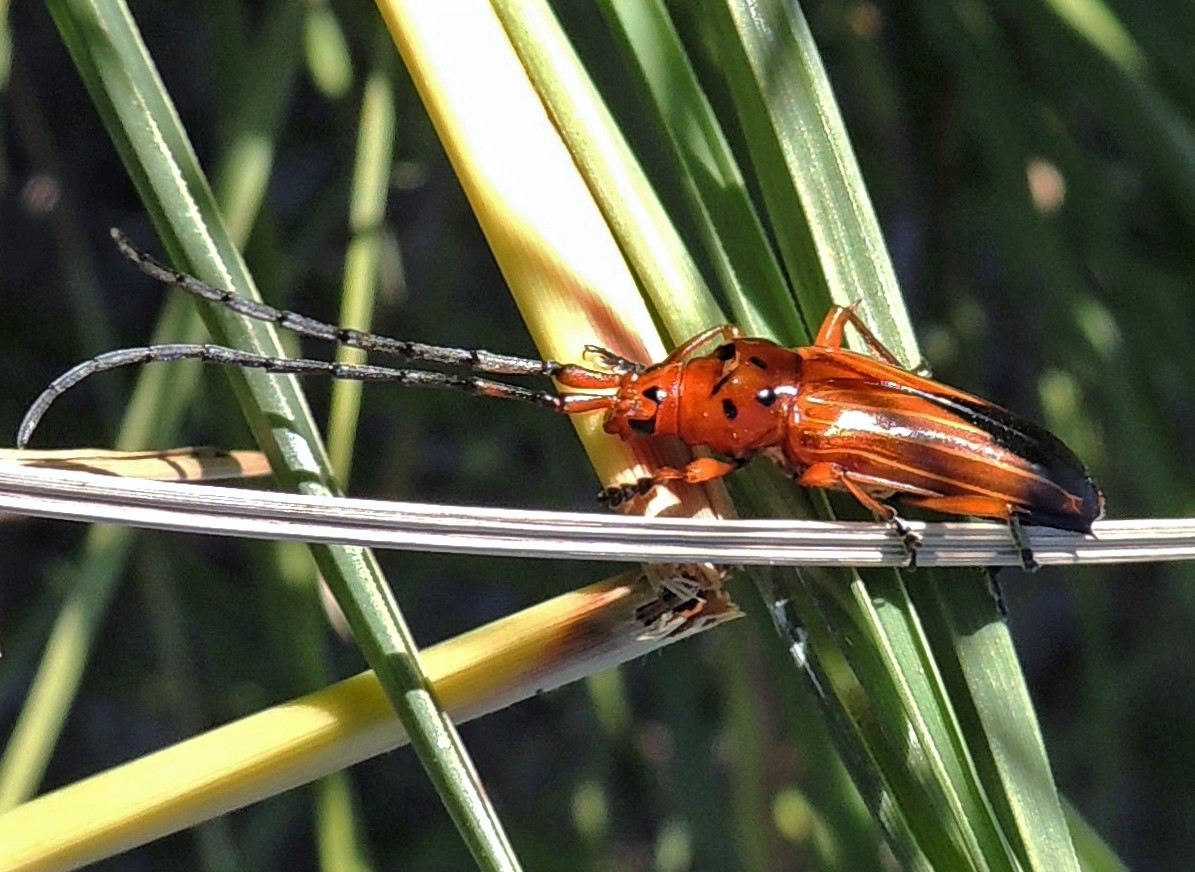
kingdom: Animalia
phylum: Arthropoda
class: Insecta
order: Coleoptera
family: Cerambycidae
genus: Oxymerus
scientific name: Oxymerus chevrolatii
